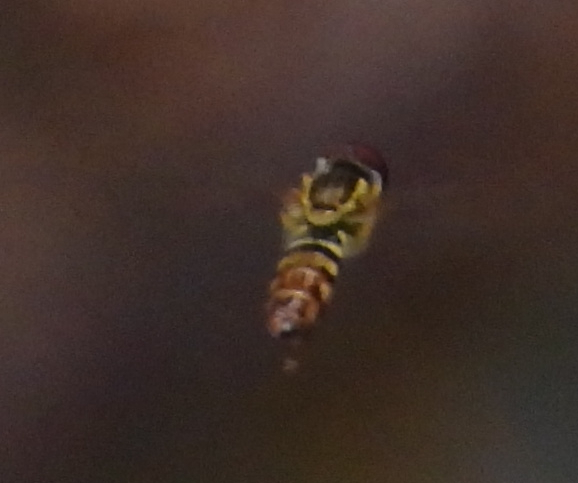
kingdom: Animalia
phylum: Arthropoda
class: Insecta
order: Diptera
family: Syrphidae
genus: Toxomerus
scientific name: Toxomerus geminatus
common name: Eastern calligrapher
